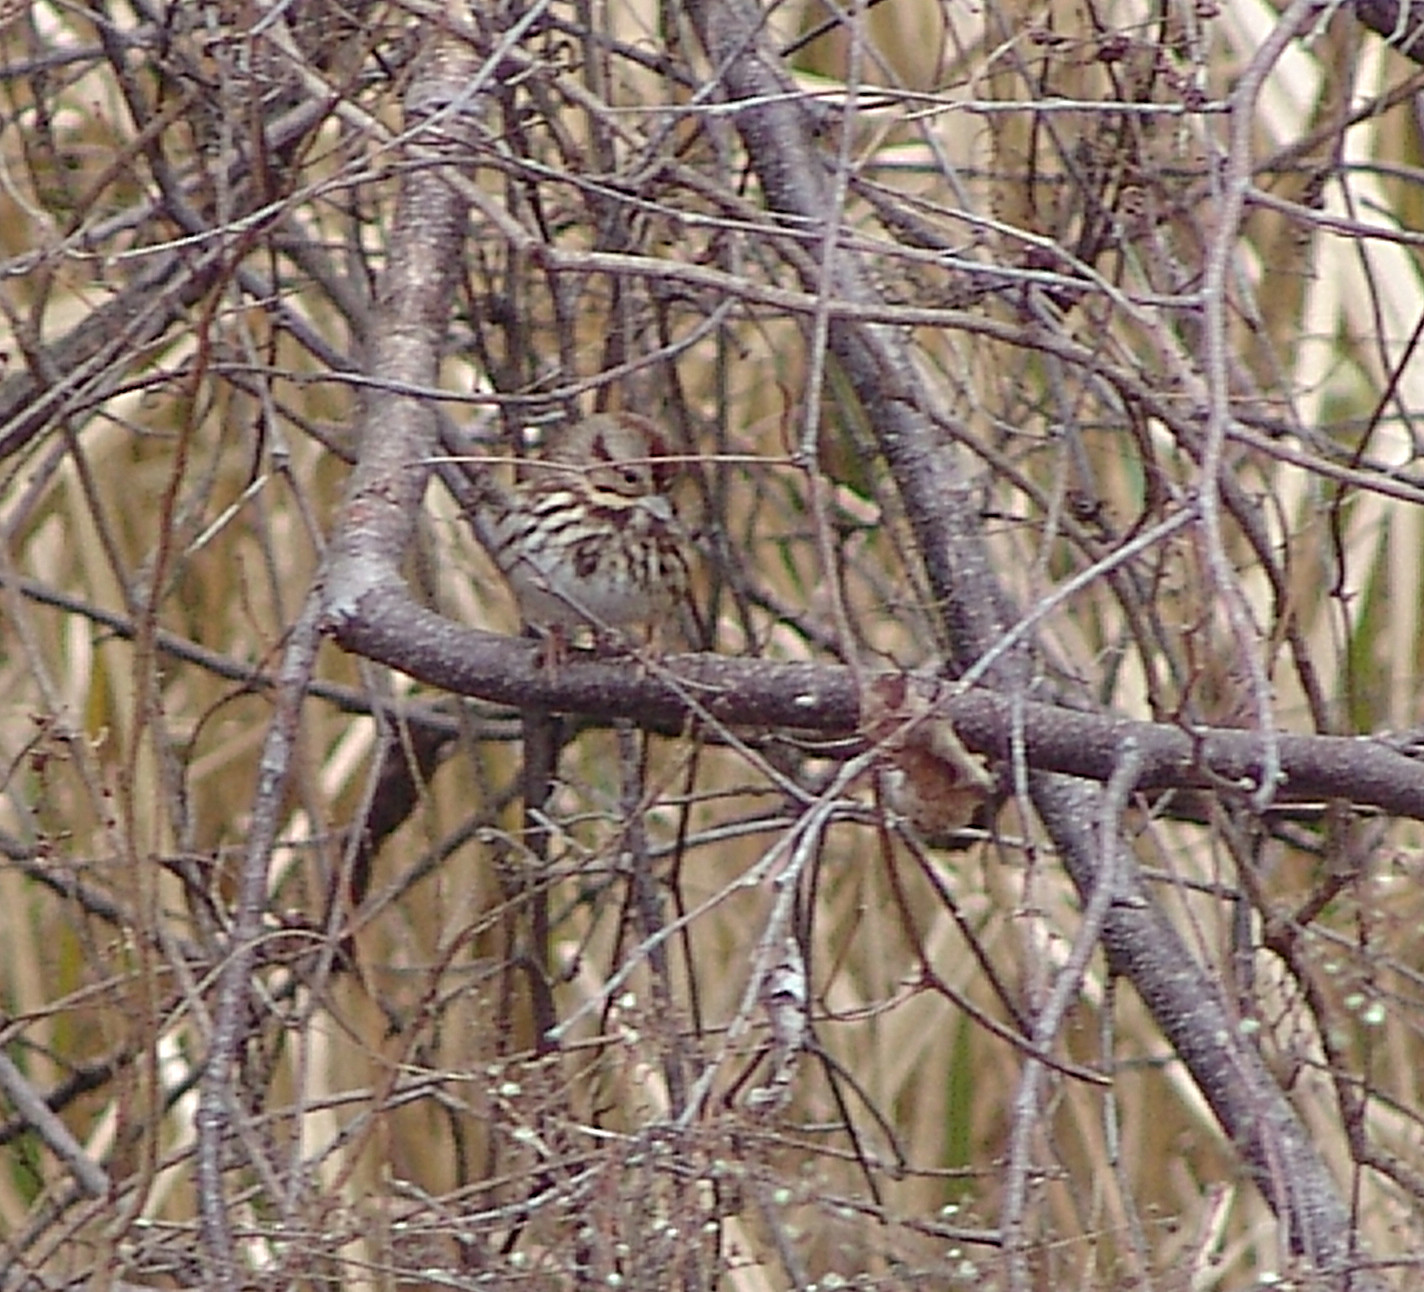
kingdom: Animalia
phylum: Chordata
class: Aves
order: Passeriformes
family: Passerellidae
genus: Melospiza
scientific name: Melospiza melodia
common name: Song sparrow
